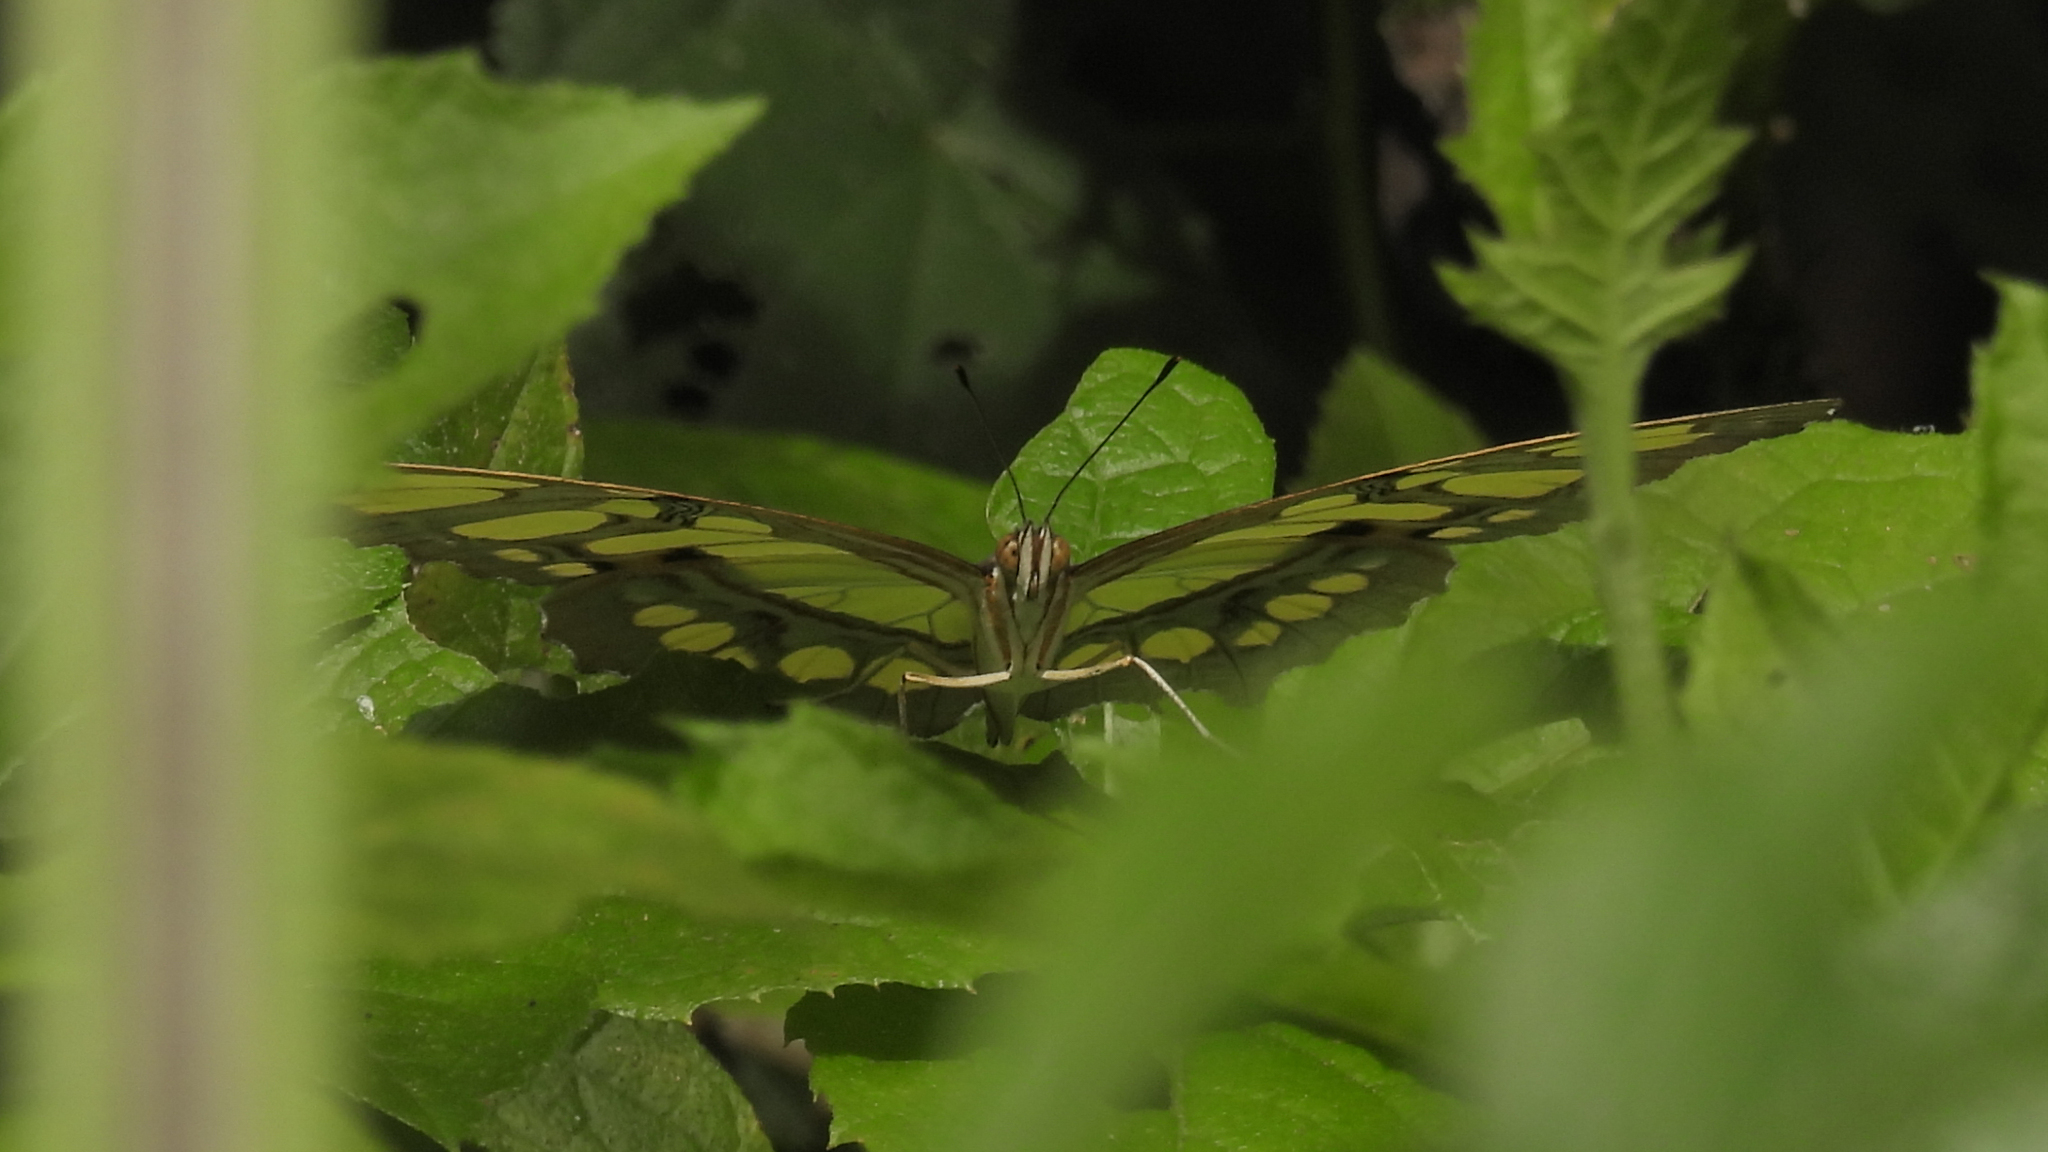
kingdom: Animalia
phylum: Arthropoda
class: Insecta
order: Lepidoptera
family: Nymphalidae
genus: Siproeta
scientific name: Siproeta stelenes
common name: Malachite
